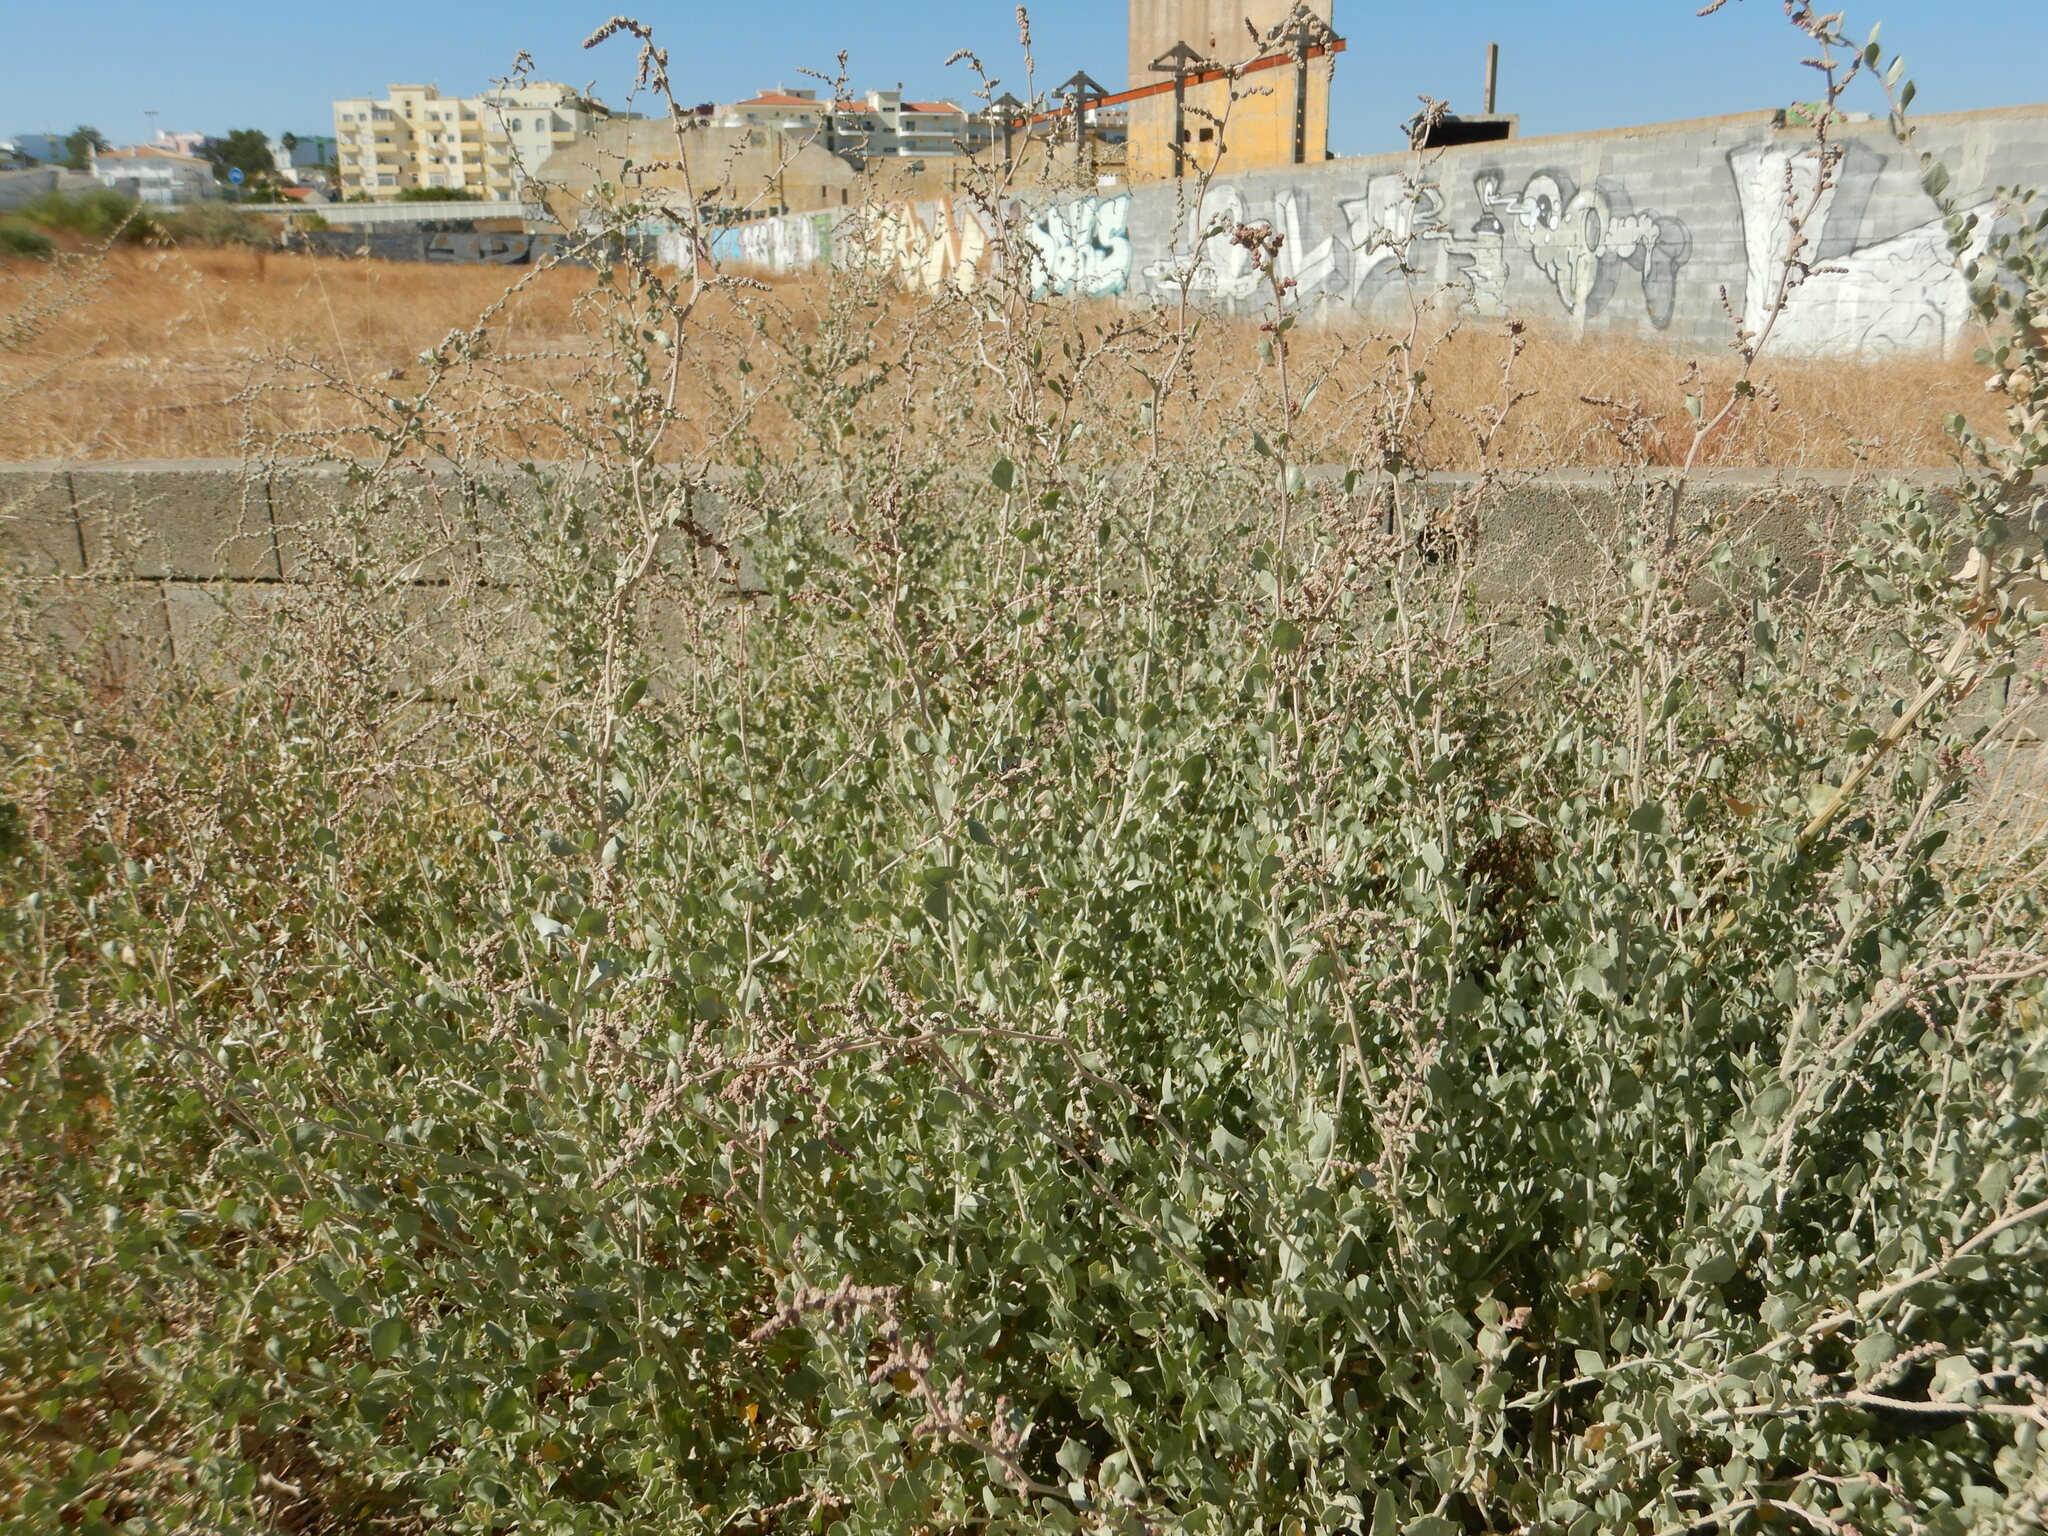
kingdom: Plantae
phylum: Tracheophyta
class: Magnoliopsida
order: Caryophyllales
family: Amaranthaceae
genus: Atriplex
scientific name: Atriplex halimus
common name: Shrubby orache
